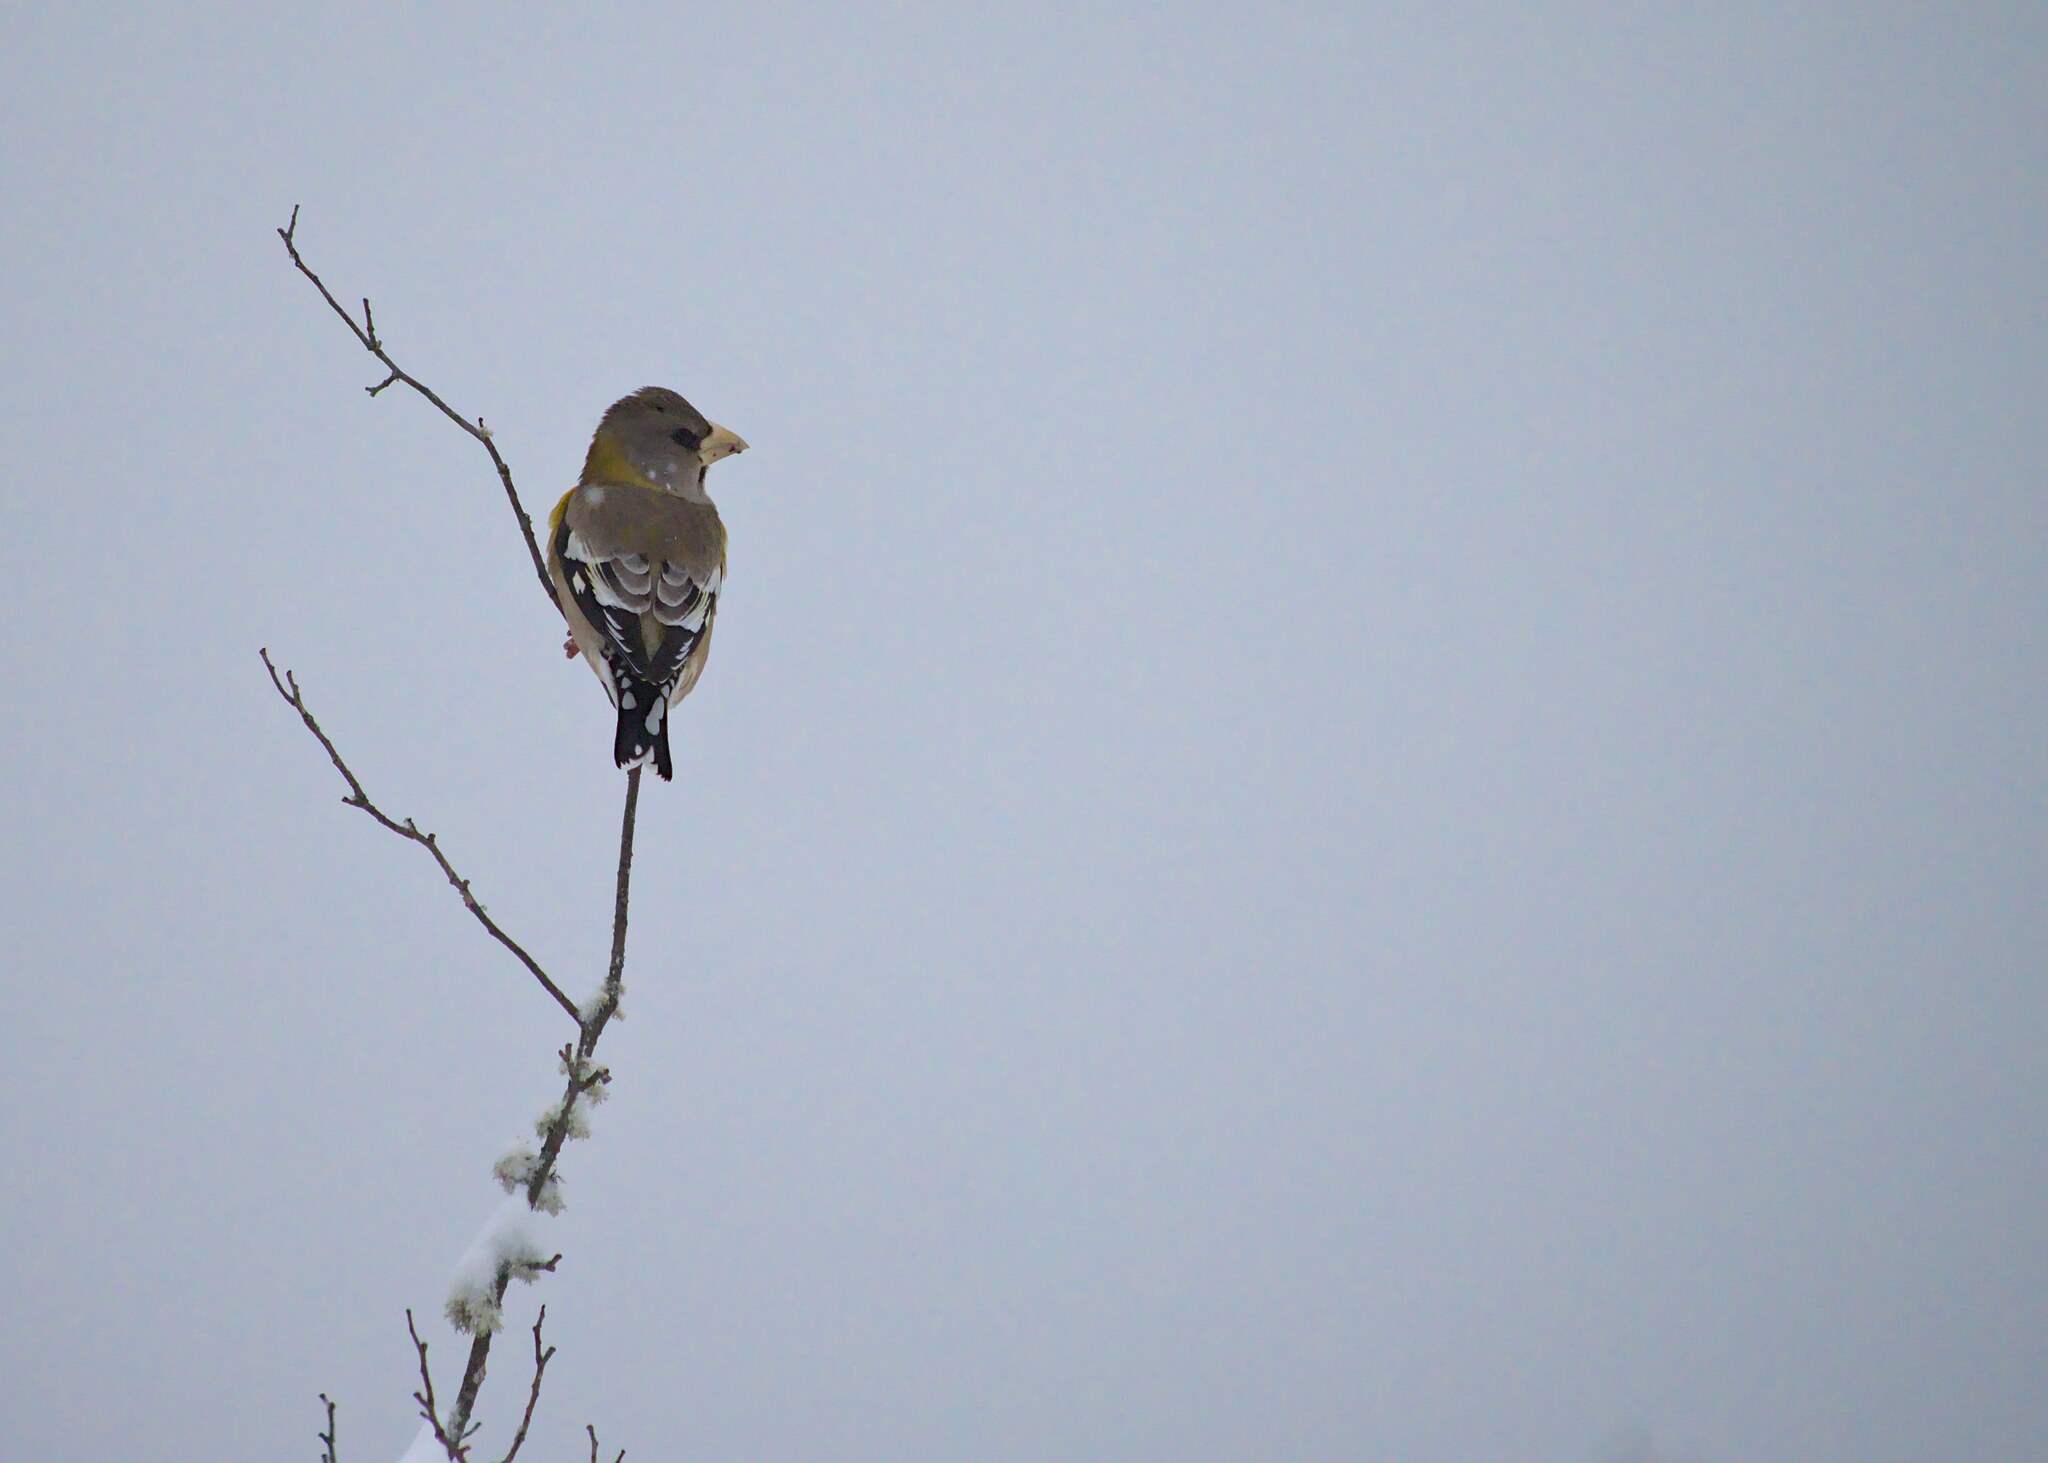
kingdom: Animalia
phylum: Chordata
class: Aves
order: Passeriformes
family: Fringillidae
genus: Hesperiphona
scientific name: Hesperiphona vespertina
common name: Evening grosbeak
